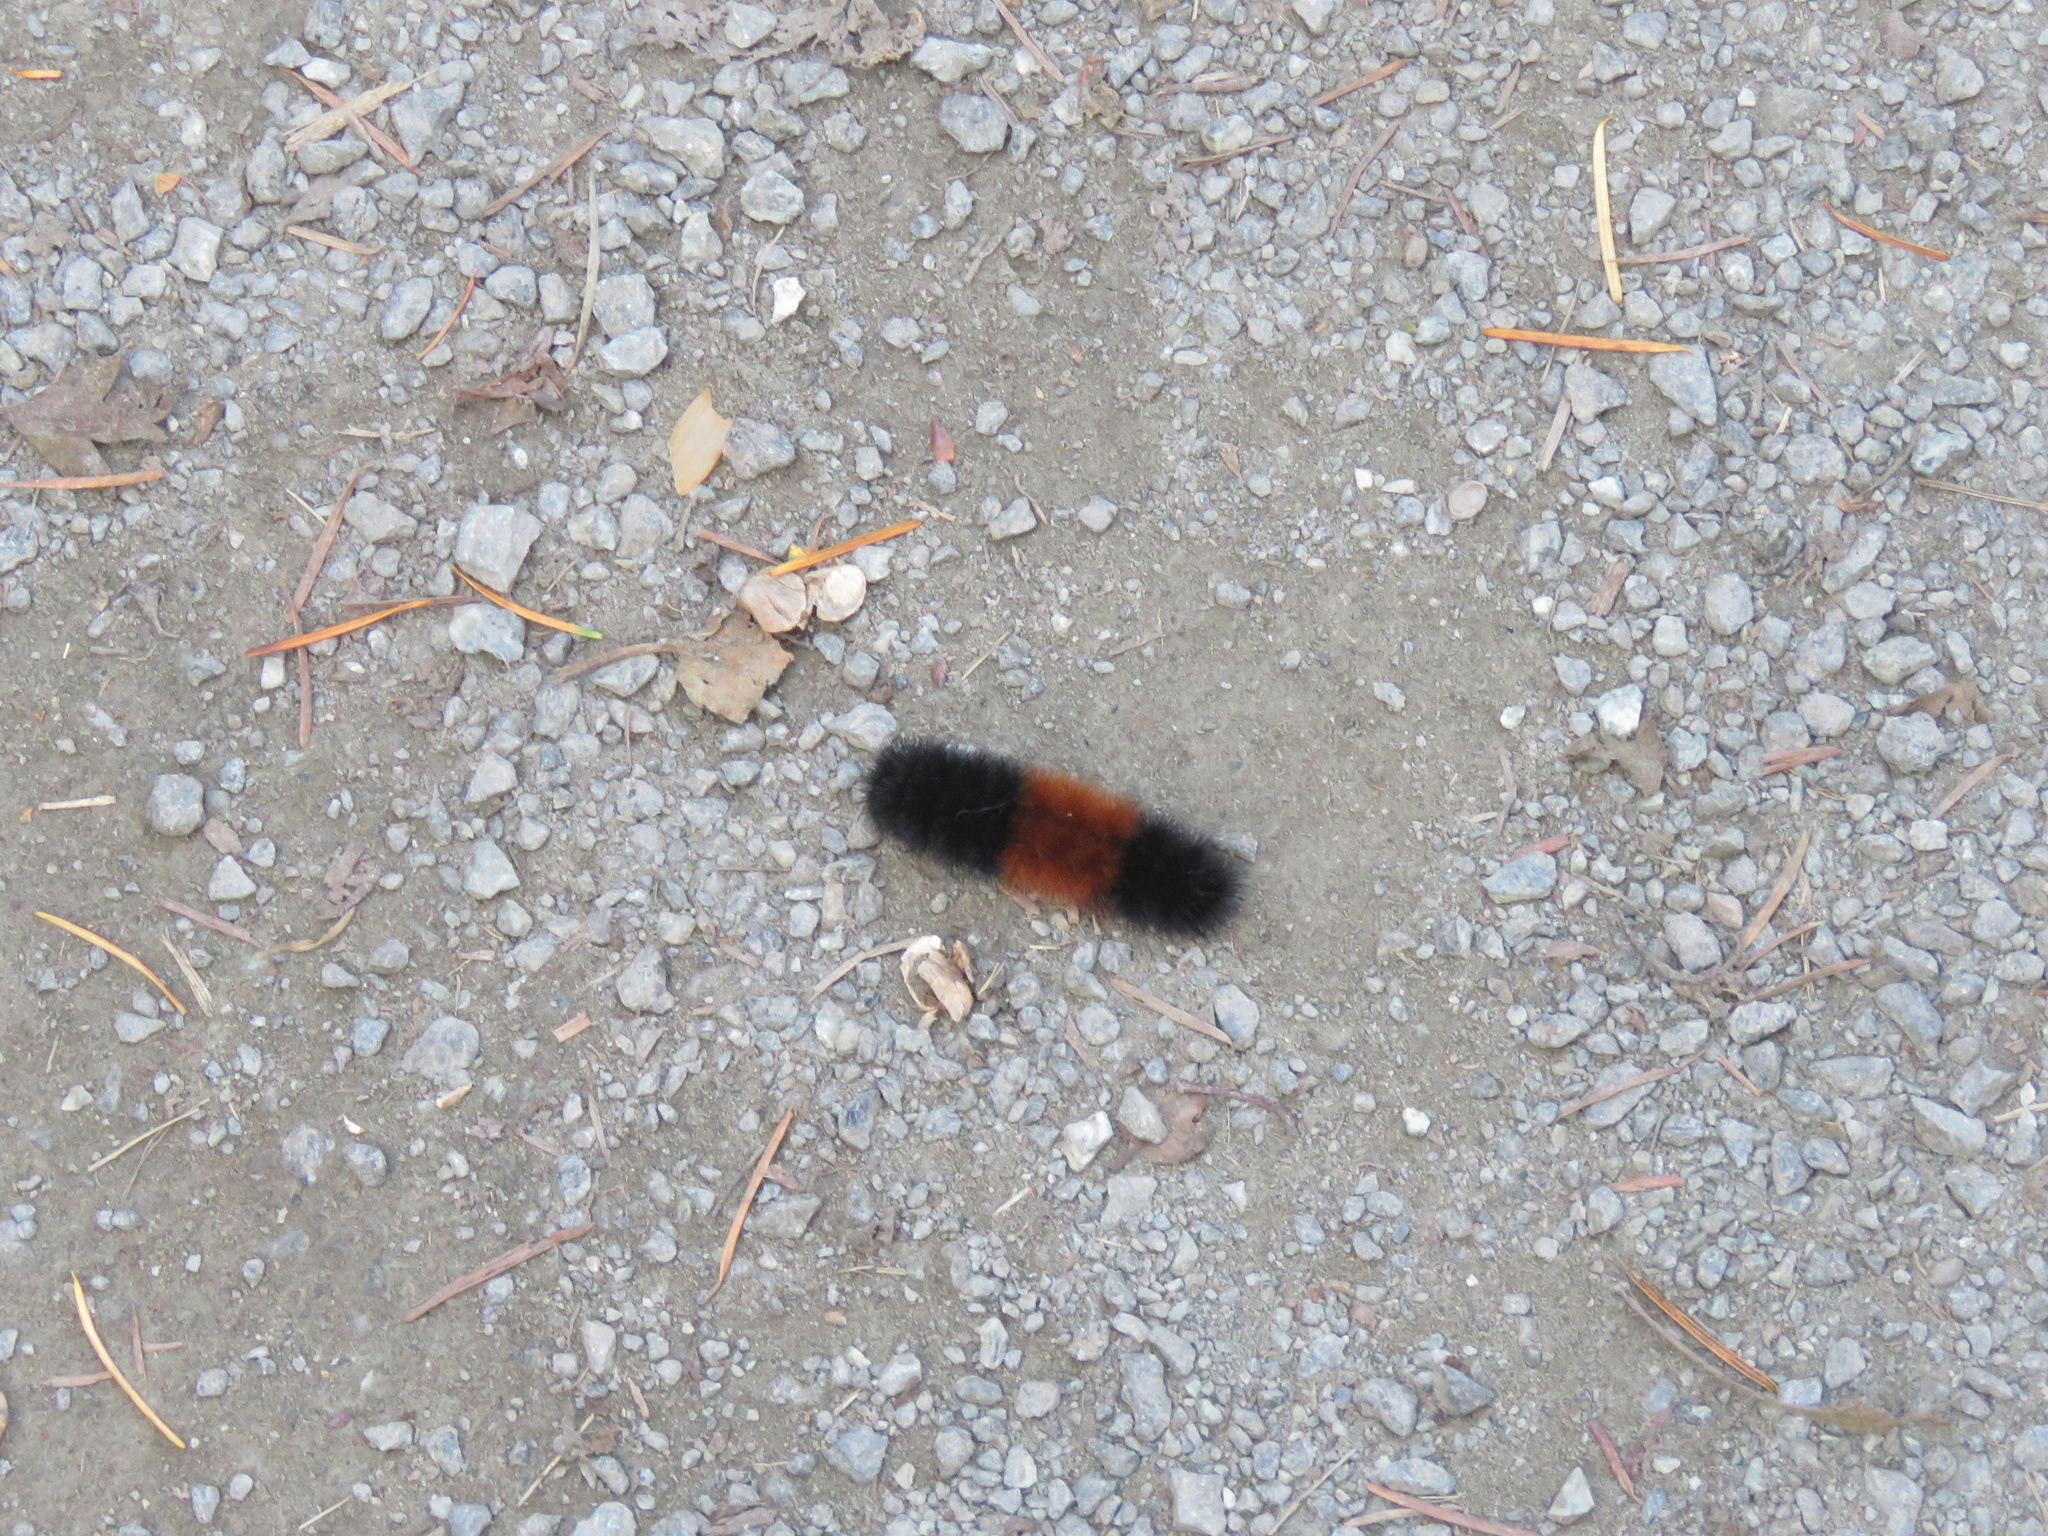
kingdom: Animalia
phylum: Arthropoda
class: Insecta
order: Lepidoptera
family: Erebidae
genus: Pyrrharctia
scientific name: Pyrrharctia isabella
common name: Isabella tiger moth
